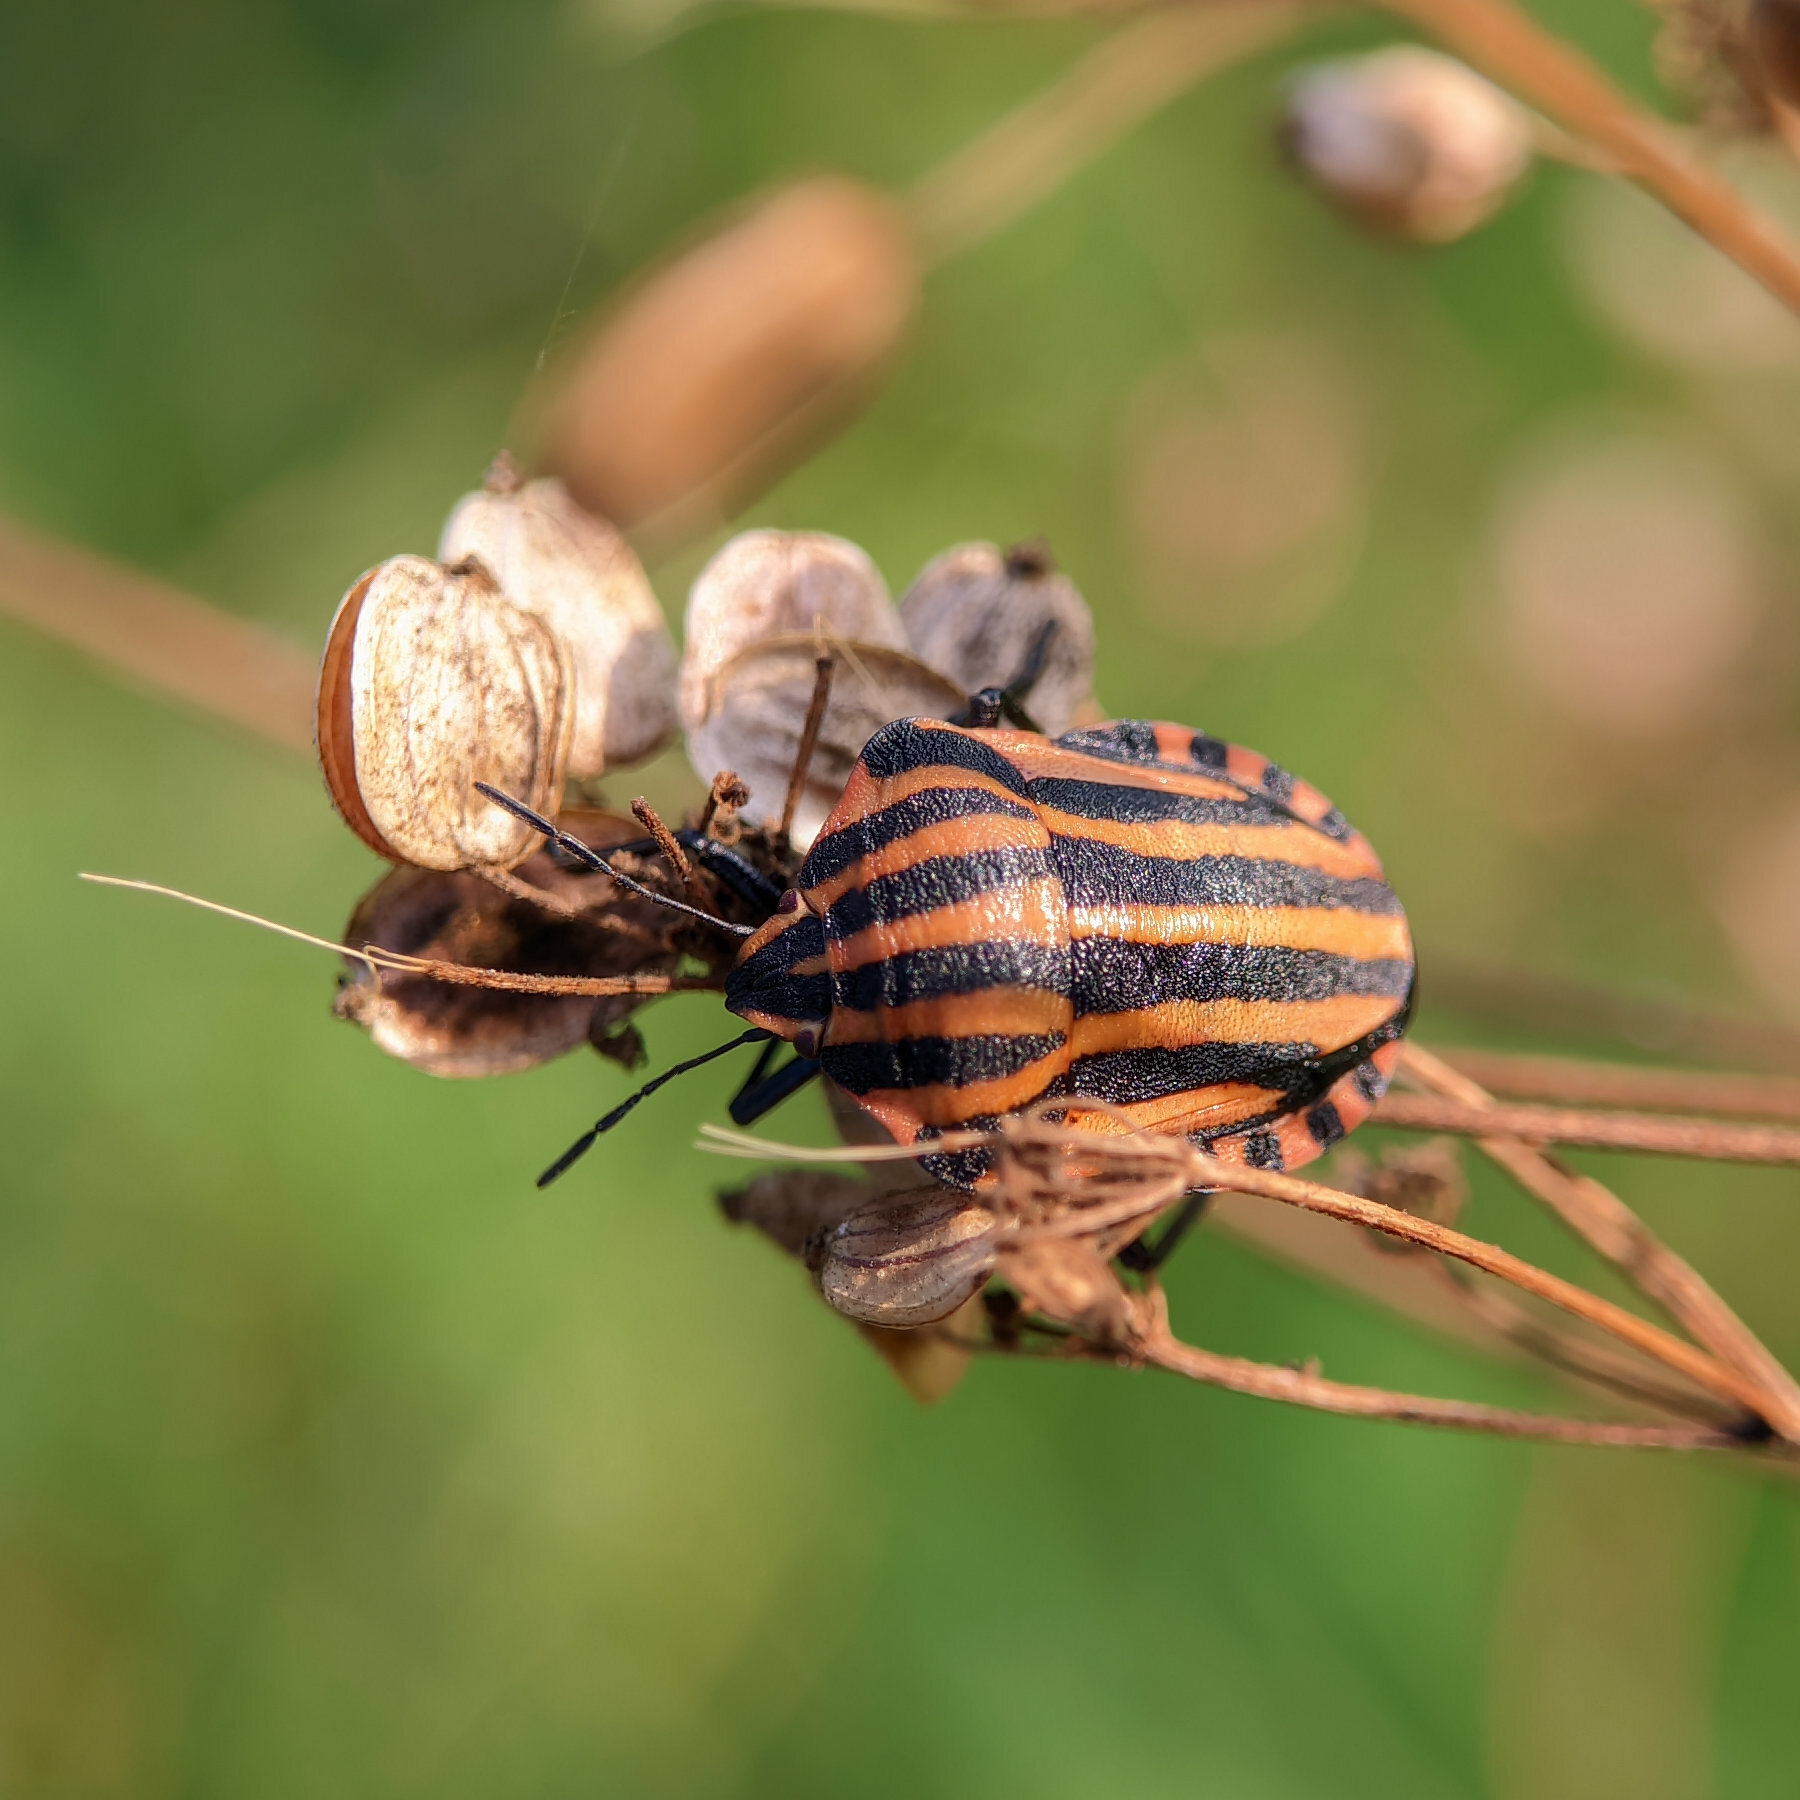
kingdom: Animalia
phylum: Arthropoda
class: Insecta
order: Hemiptera
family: Pentatomidae
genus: Graphosoma
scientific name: Graphosoma italicum
